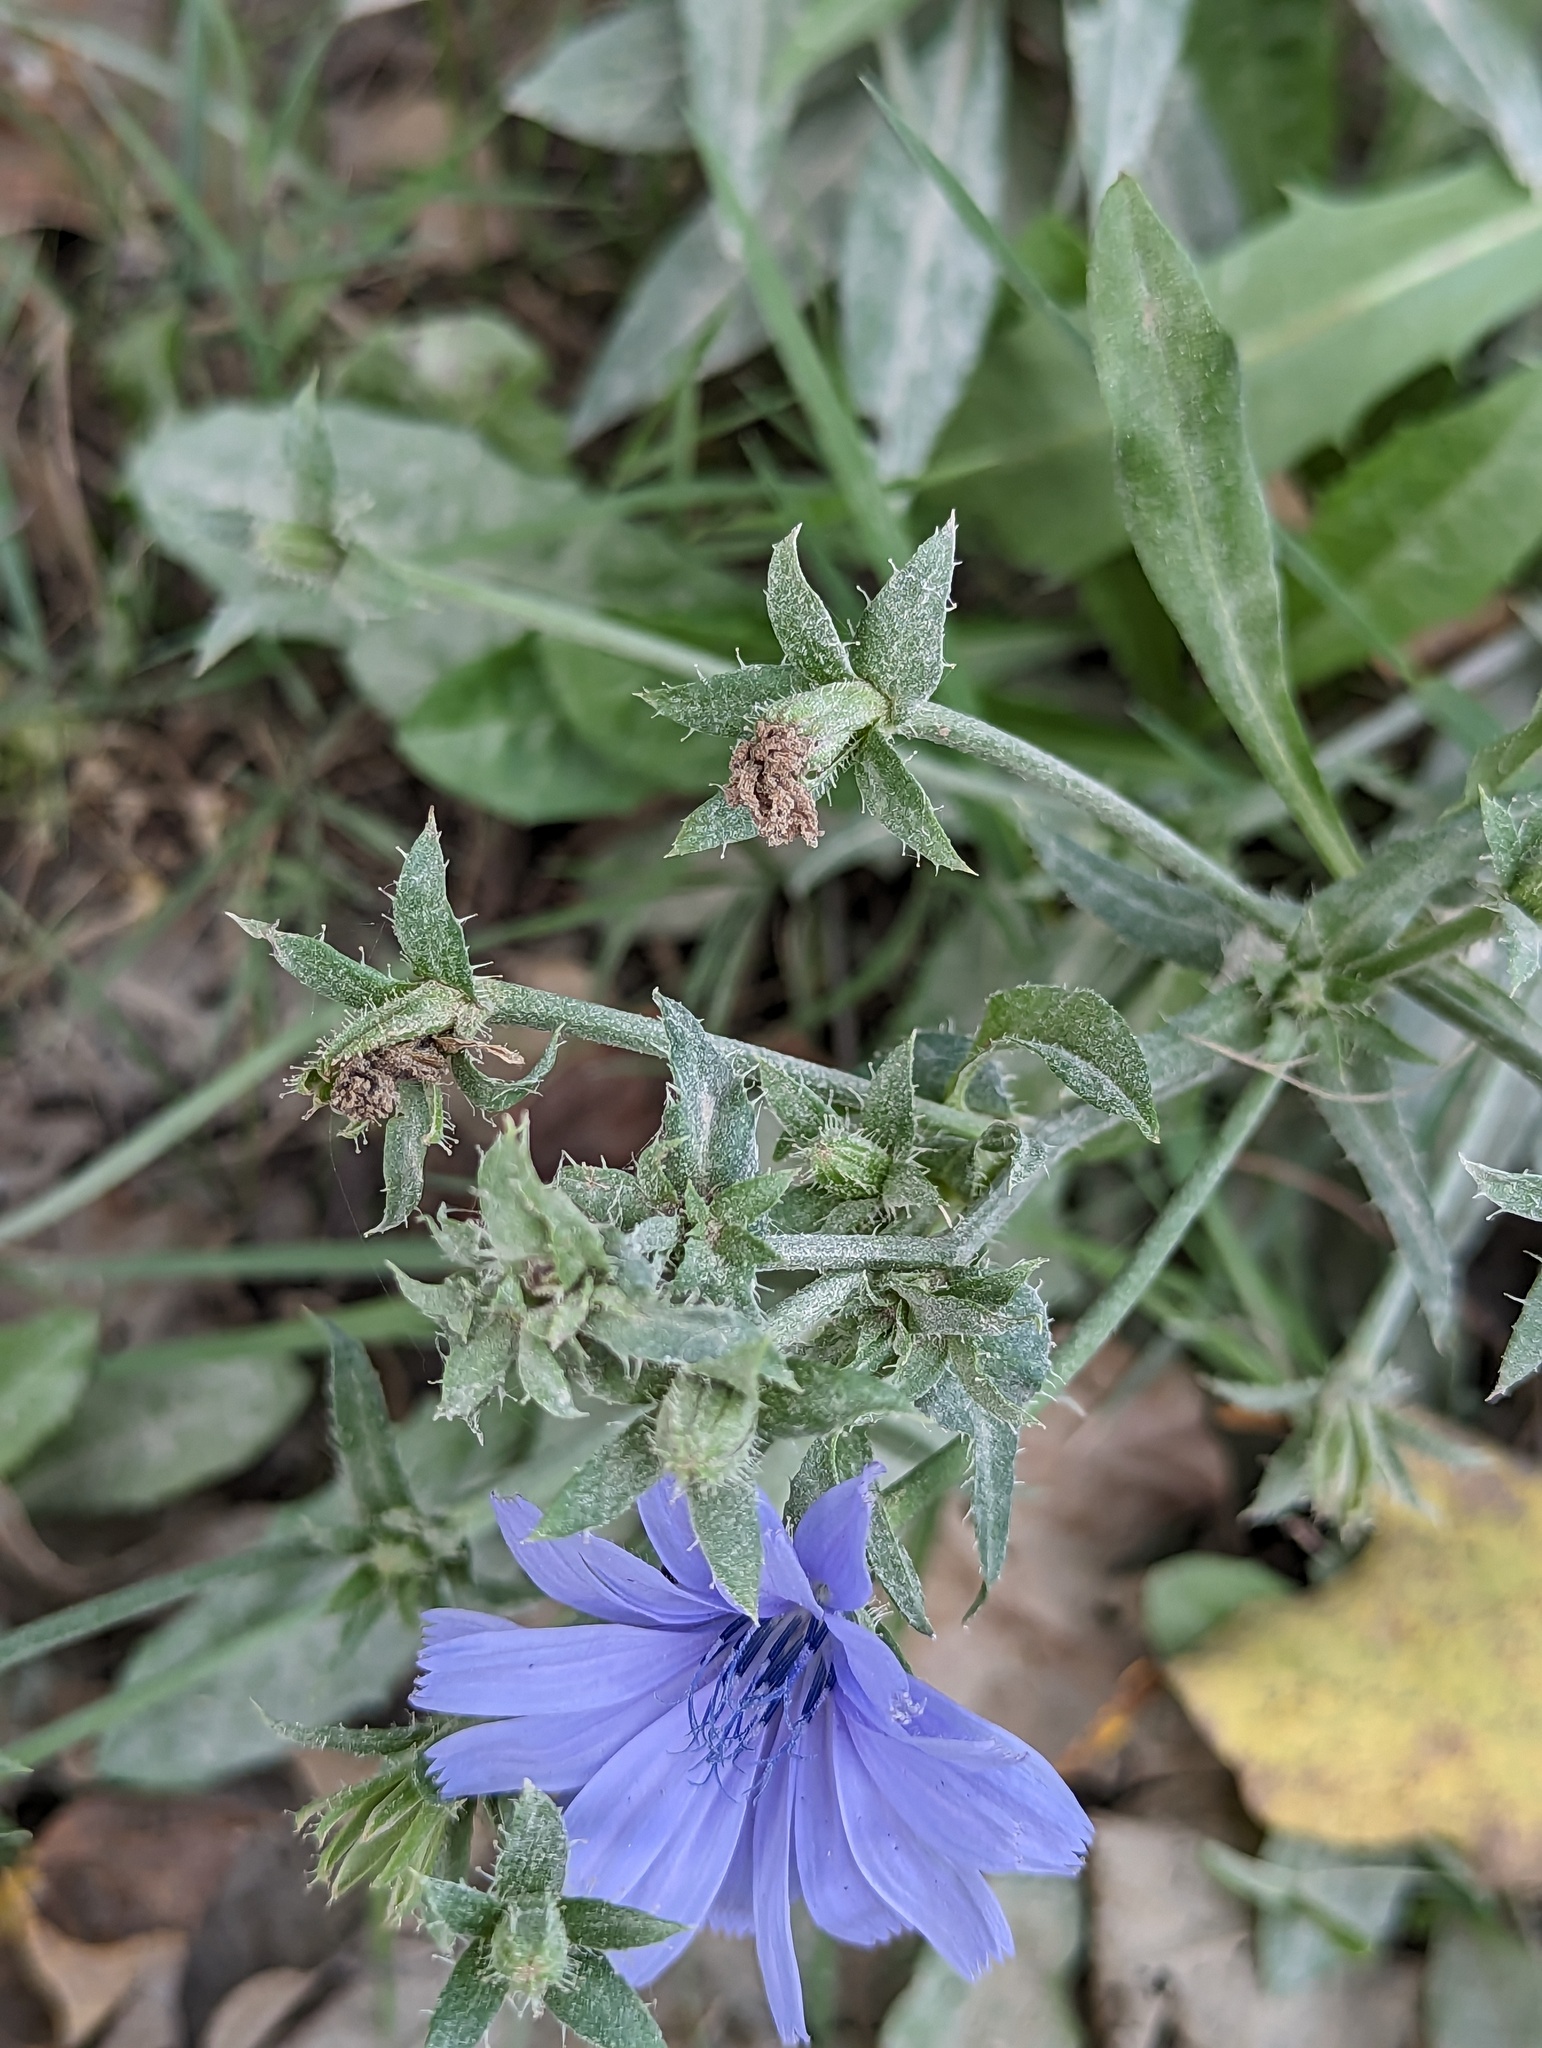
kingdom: Plantae
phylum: Tracheophyta
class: Magnoliopsida
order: Asterales
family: Asteraceae
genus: Cichorium
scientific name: Cichorium intybus
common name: Chicory
